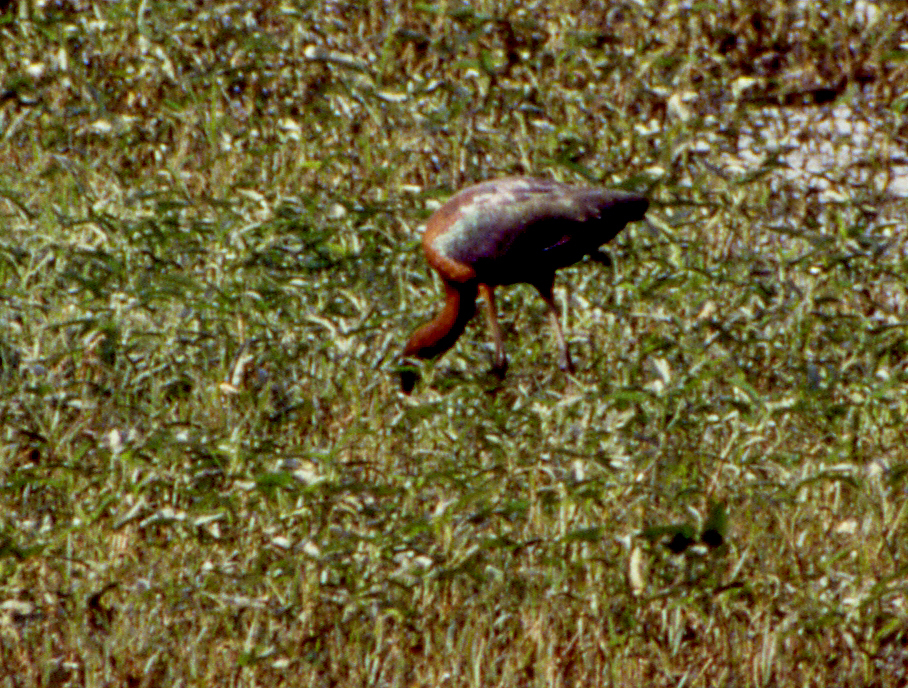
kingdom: Animalia
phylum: Chordata
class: Aves
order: Pelecaniformes
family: Threskiornithidae
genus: Plegadis
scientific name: Plegadis falcinellus
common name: Glossy ibis
